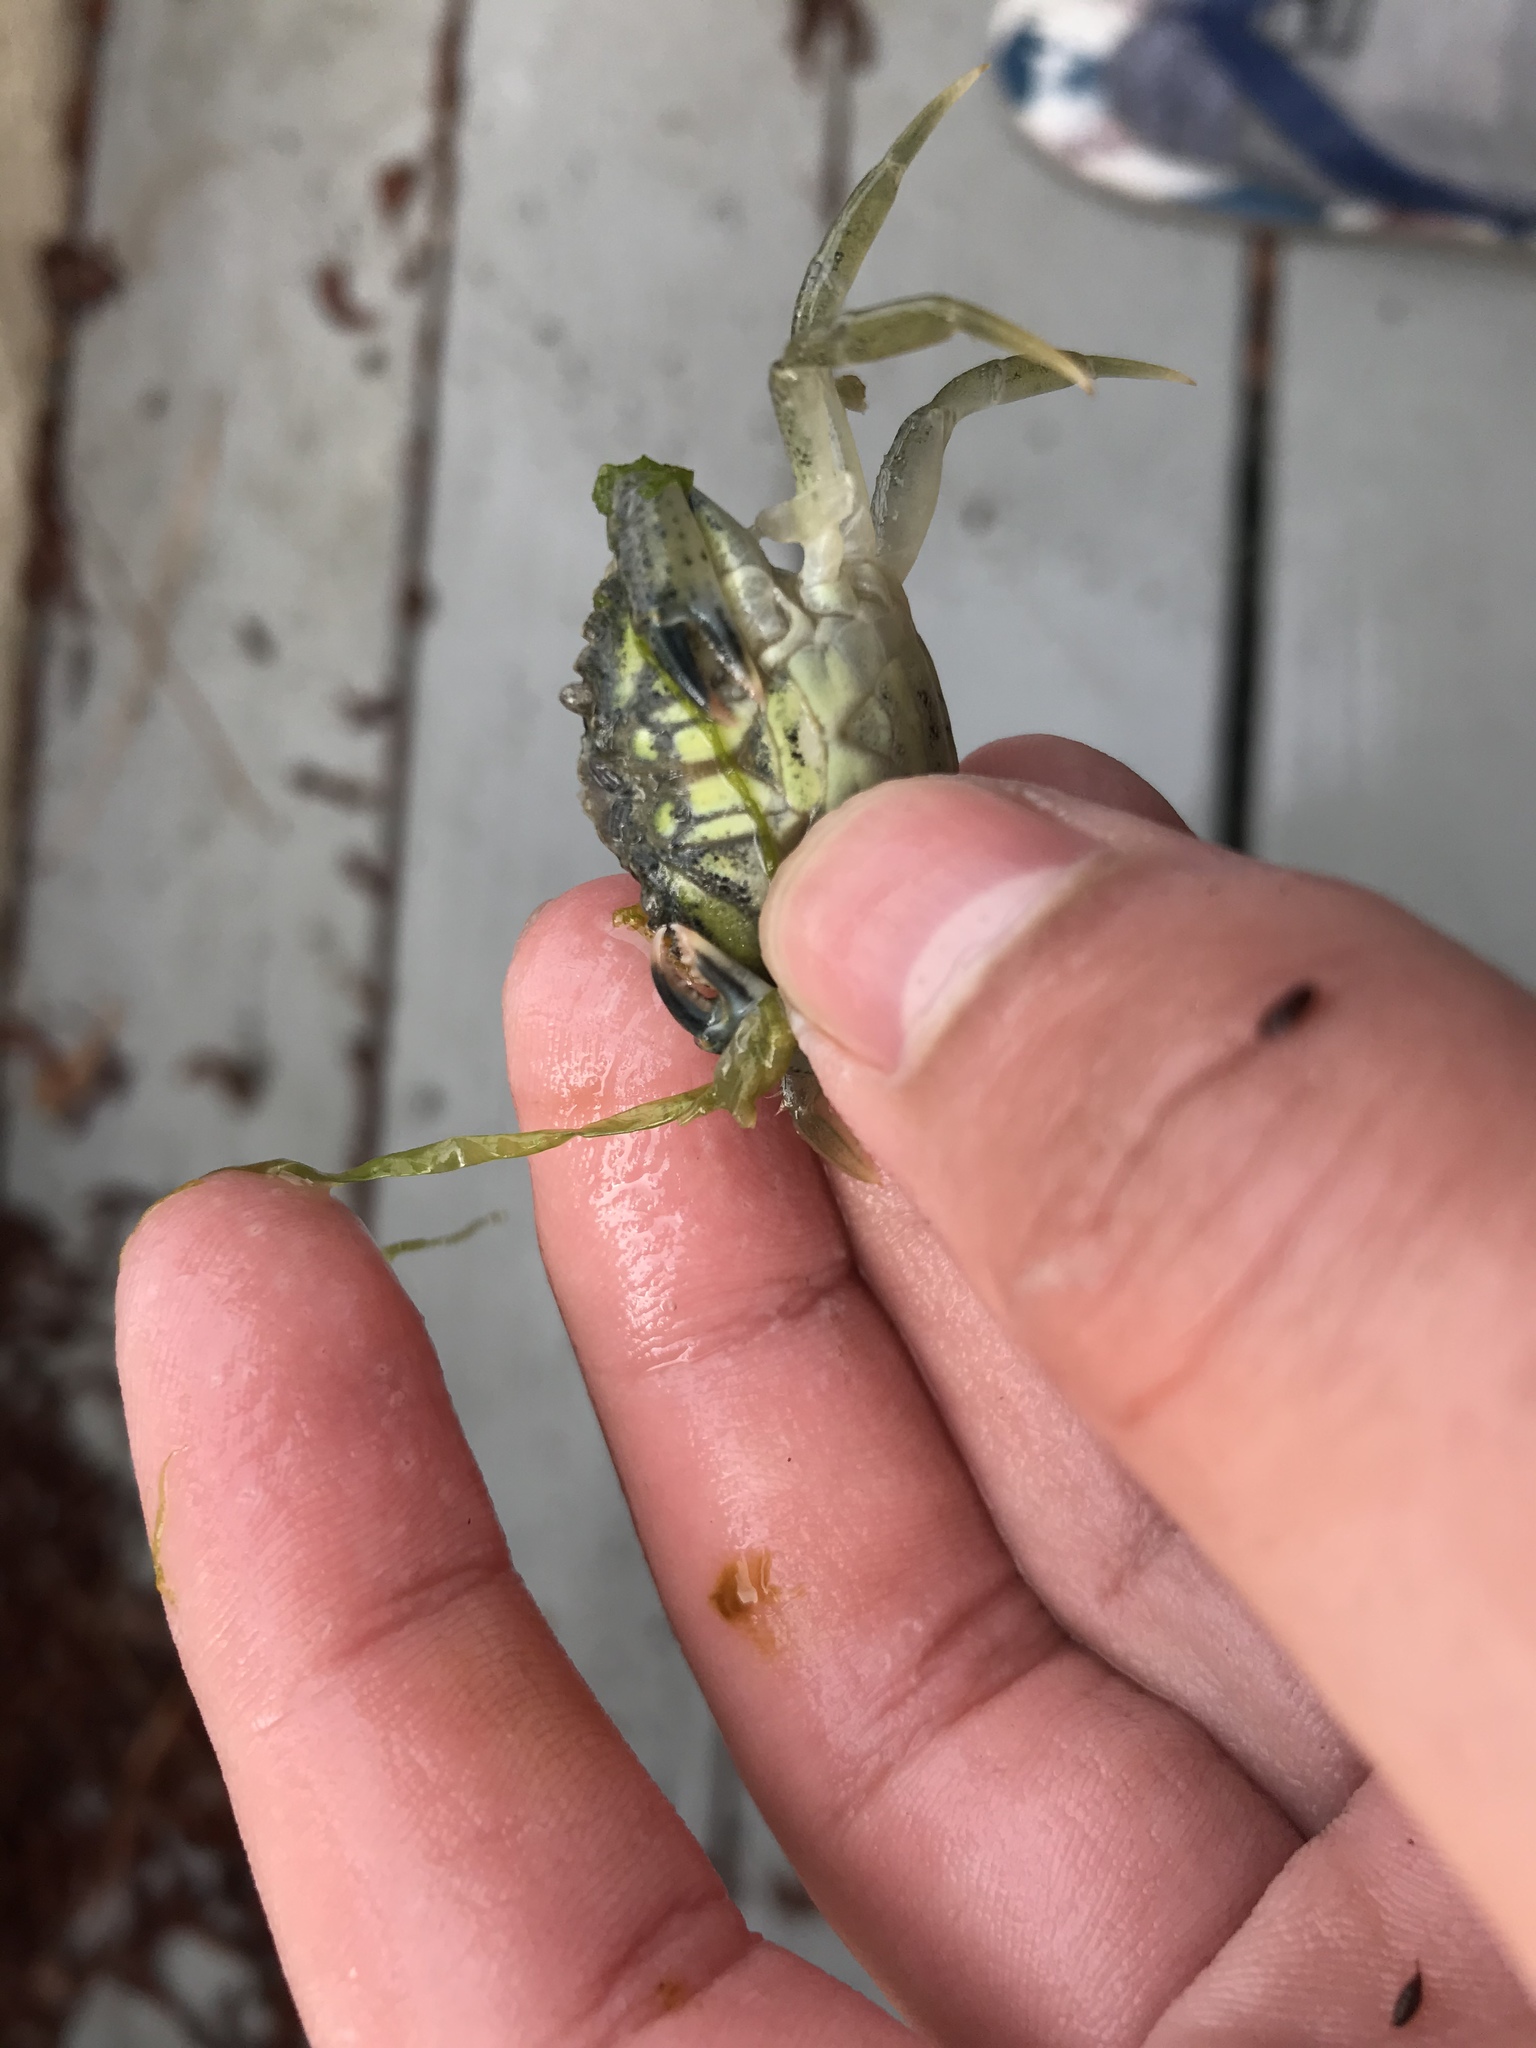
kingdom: Animalia
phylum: Arthropoda
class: Malacostraca
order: Decapoda
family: Carcinidae
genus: Carcinus
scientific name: Carcinus maenas
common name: European green crab
